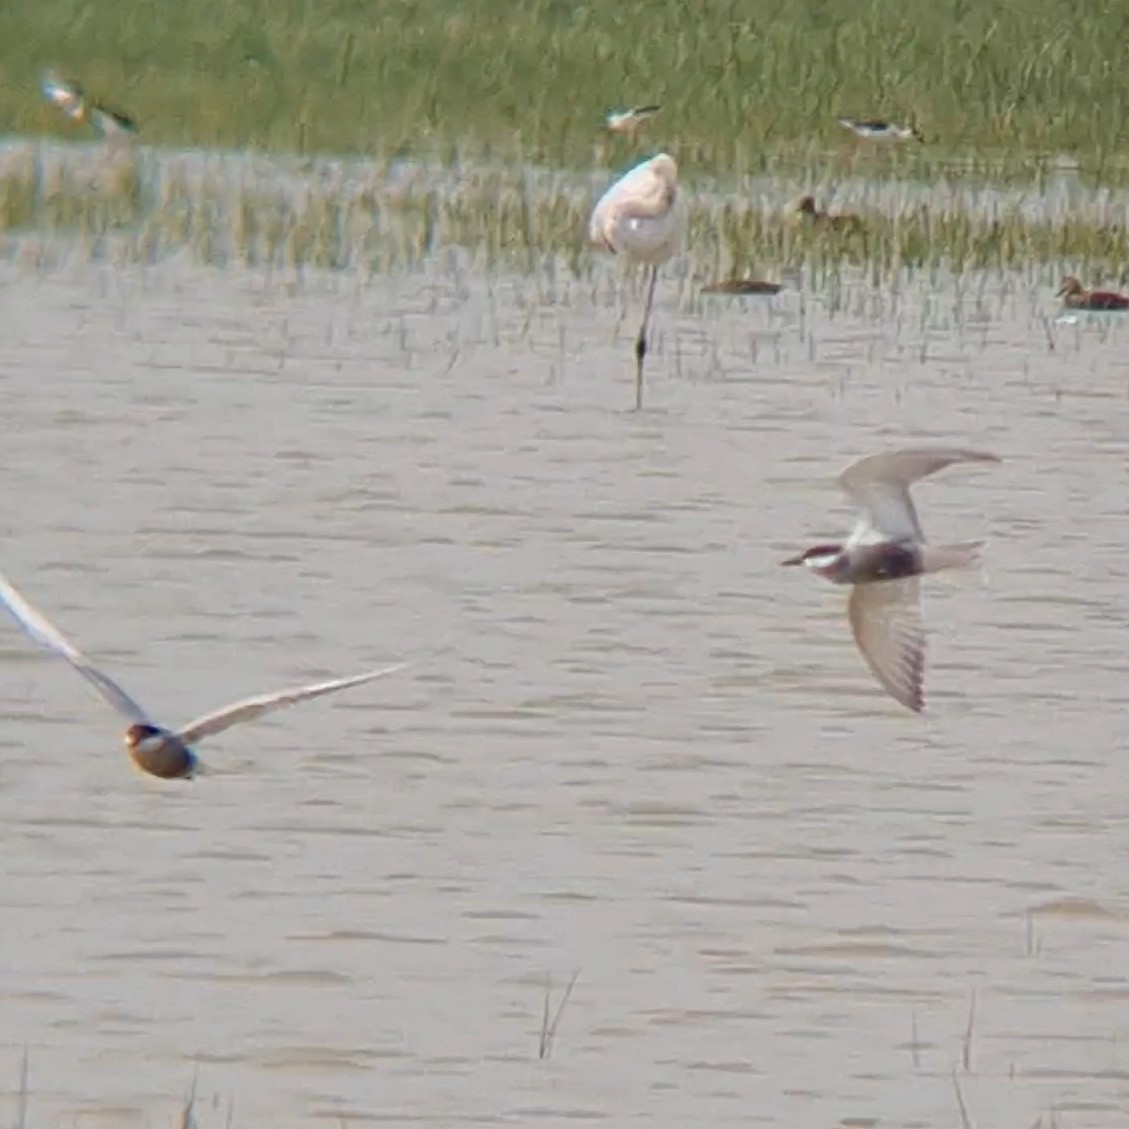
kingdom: Animalia
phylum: Chordata
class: Aves
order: Charadriiformes
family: Laridae
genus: Chlidonias
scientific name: Chlidonias hybrida
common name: Whiskered tern
